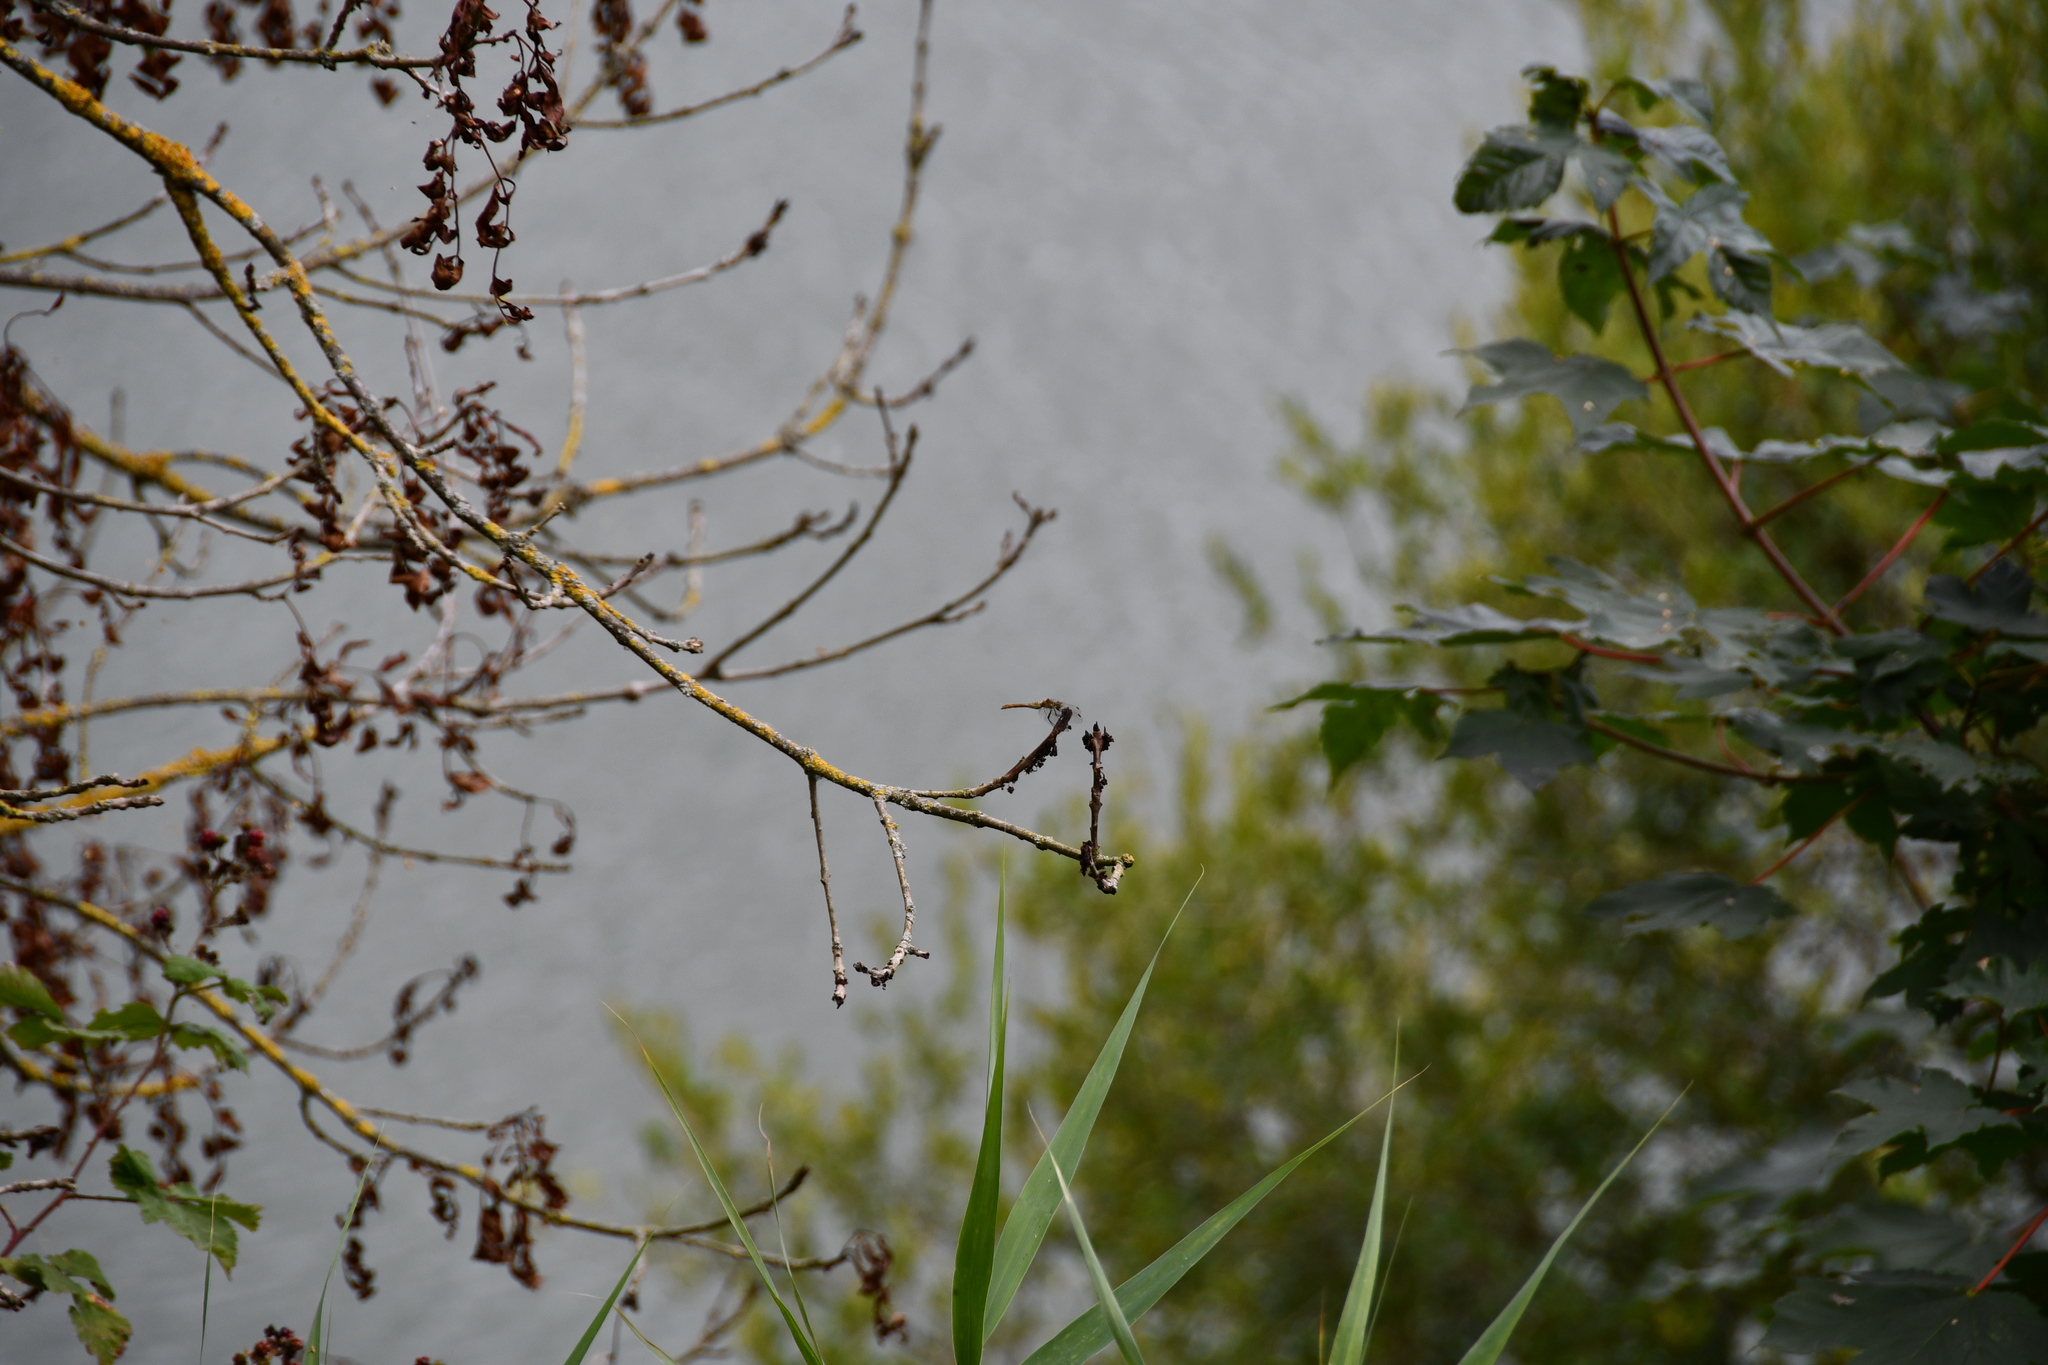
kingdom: Animalia
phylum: Arthropoda
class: Insecta
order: Odonata
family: Libellulidae
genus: Sympetrum
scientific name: Sympetrum sanguineum
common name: Ruddy darter
